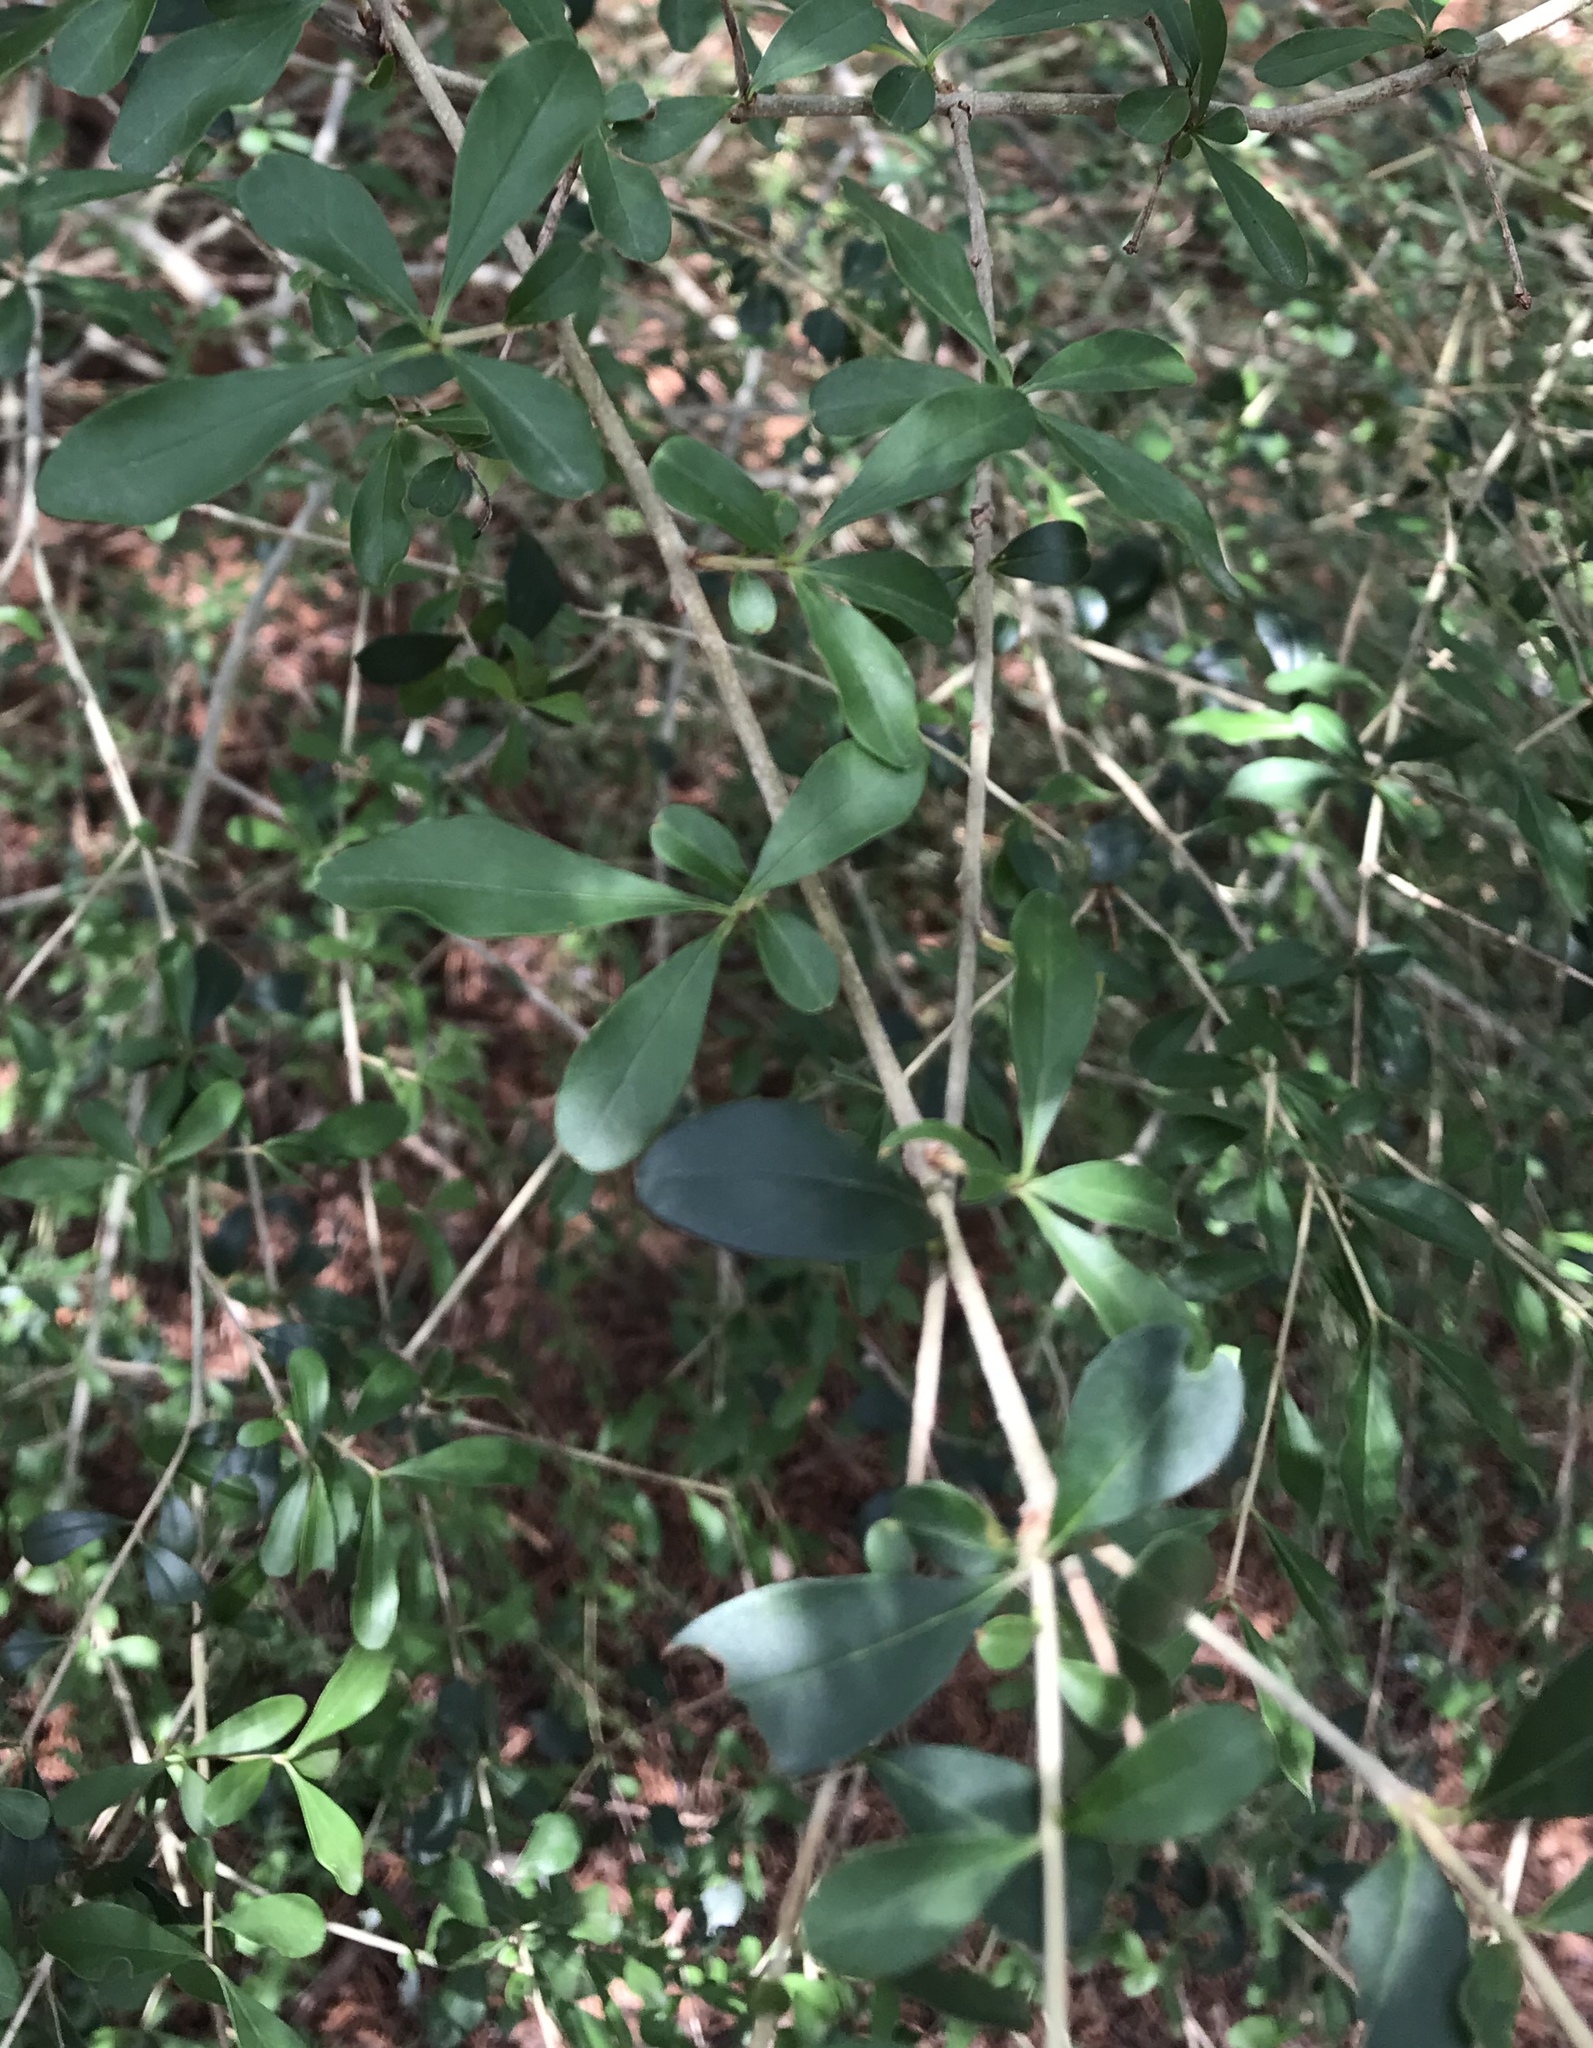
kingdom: Plantae
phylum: Tracheophyta
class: Magnoliopsida
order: Lamiales
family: Oleaceae
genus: Ligustrum
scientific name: Ligustrum quihoui
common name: Waxyleaf privet
